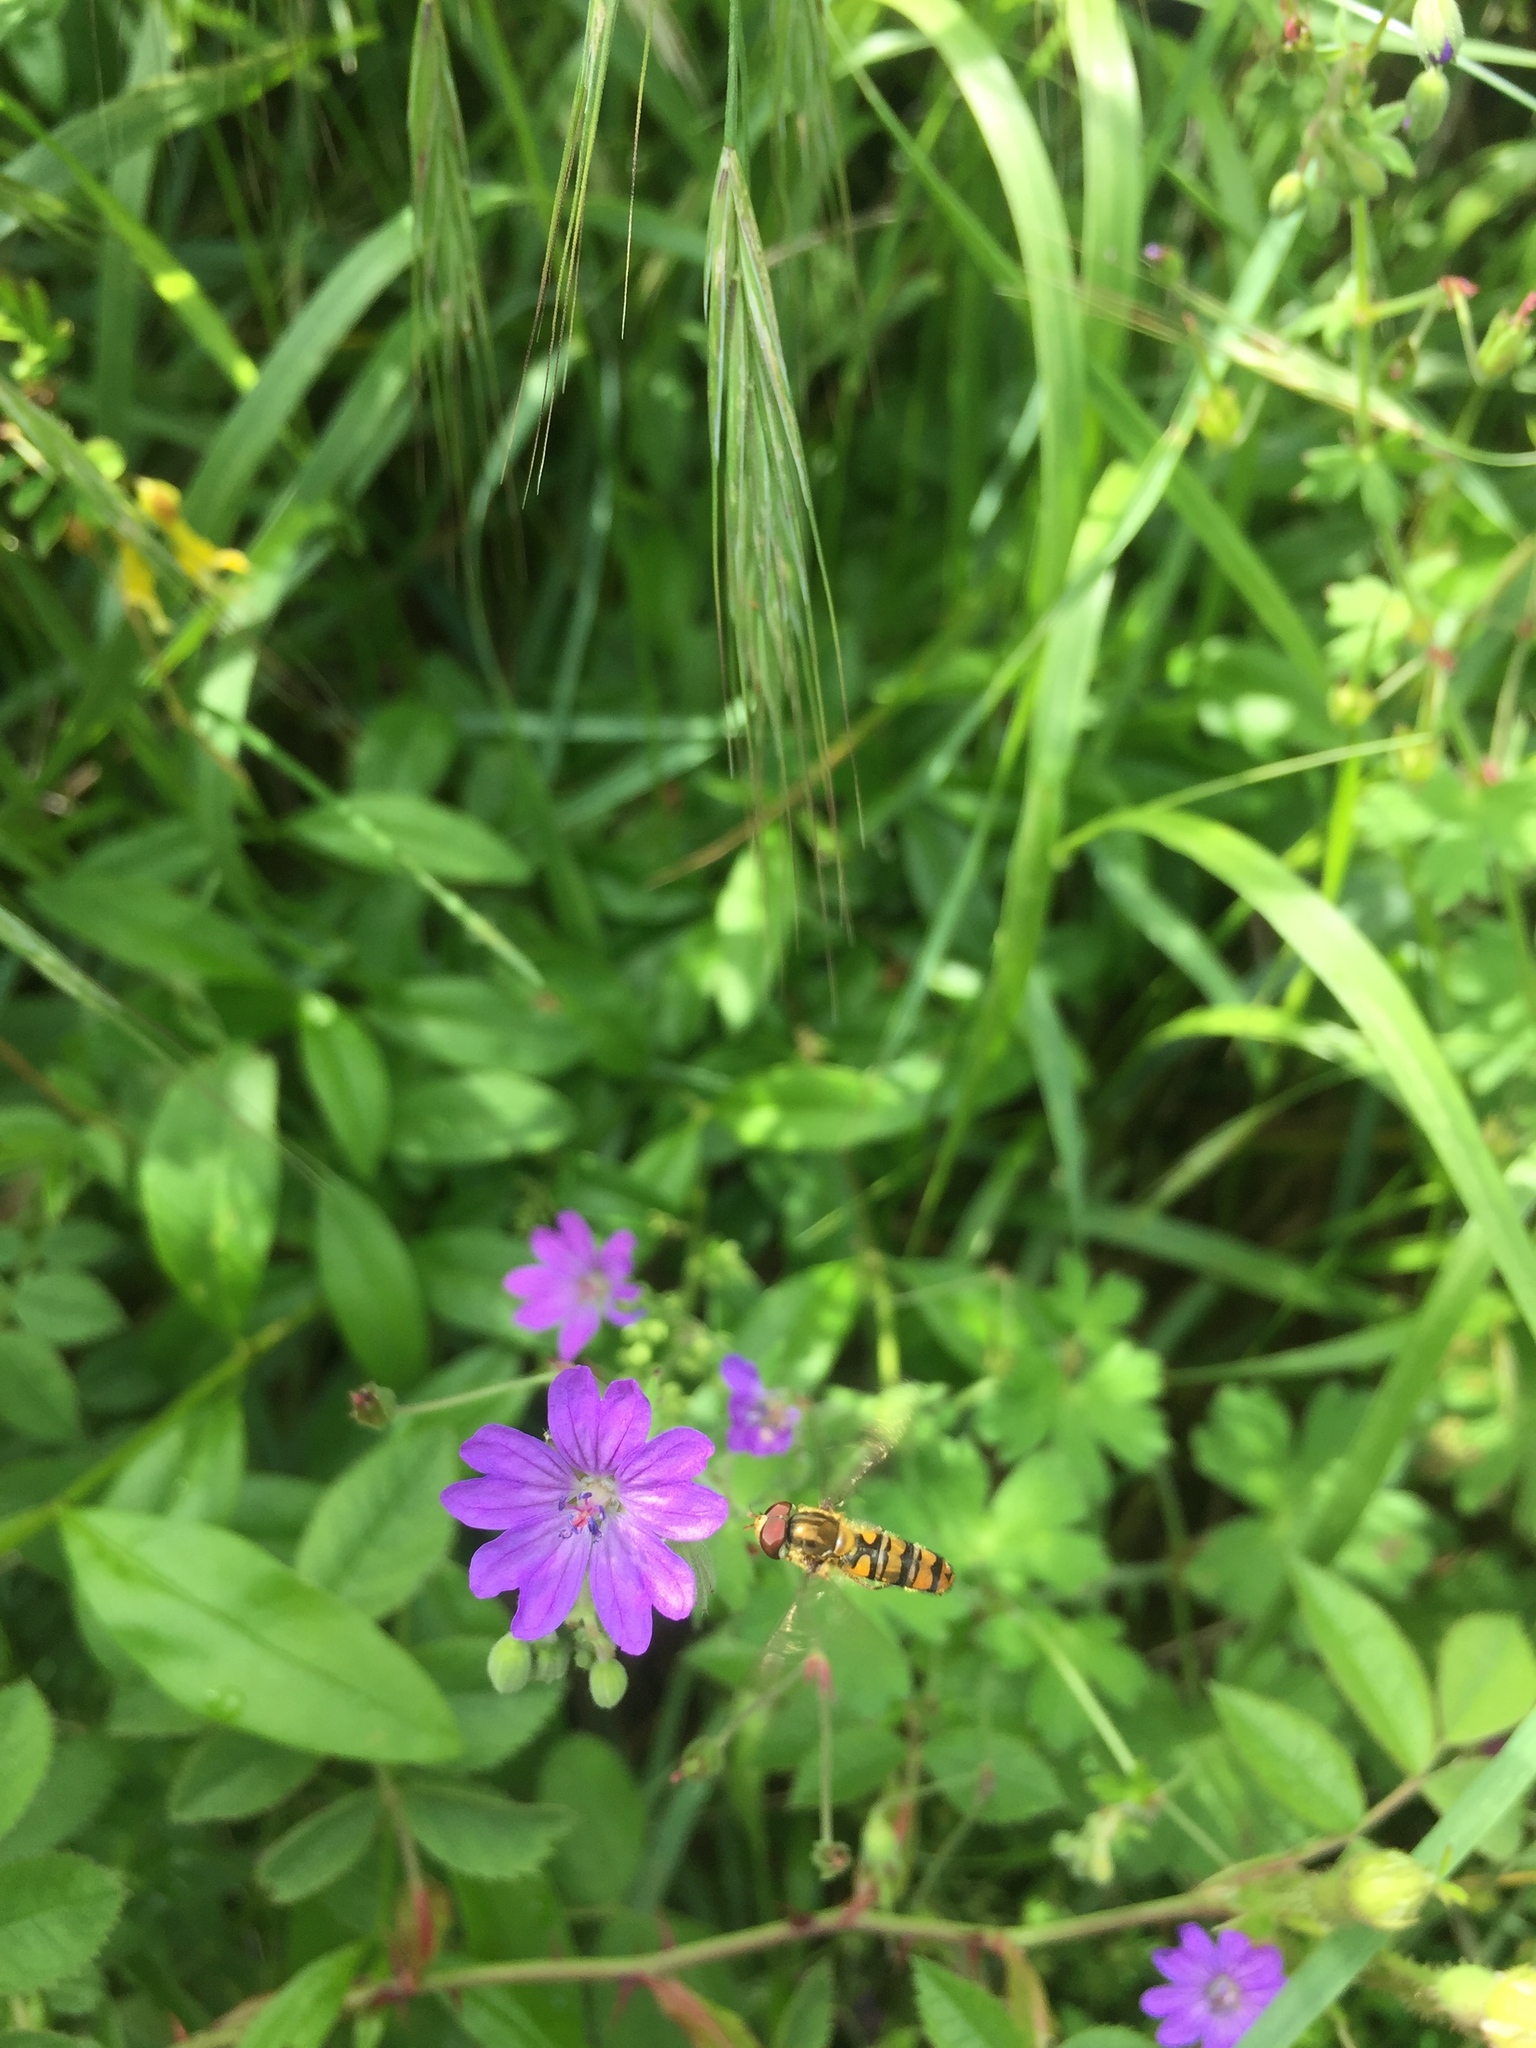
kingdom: Animalia
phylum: Arthropoda
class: Insecta
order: Diptera
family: Syrphidae
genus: Episyrphus
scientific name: Episyrphus balteatus
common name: Marmalade hoverfly
